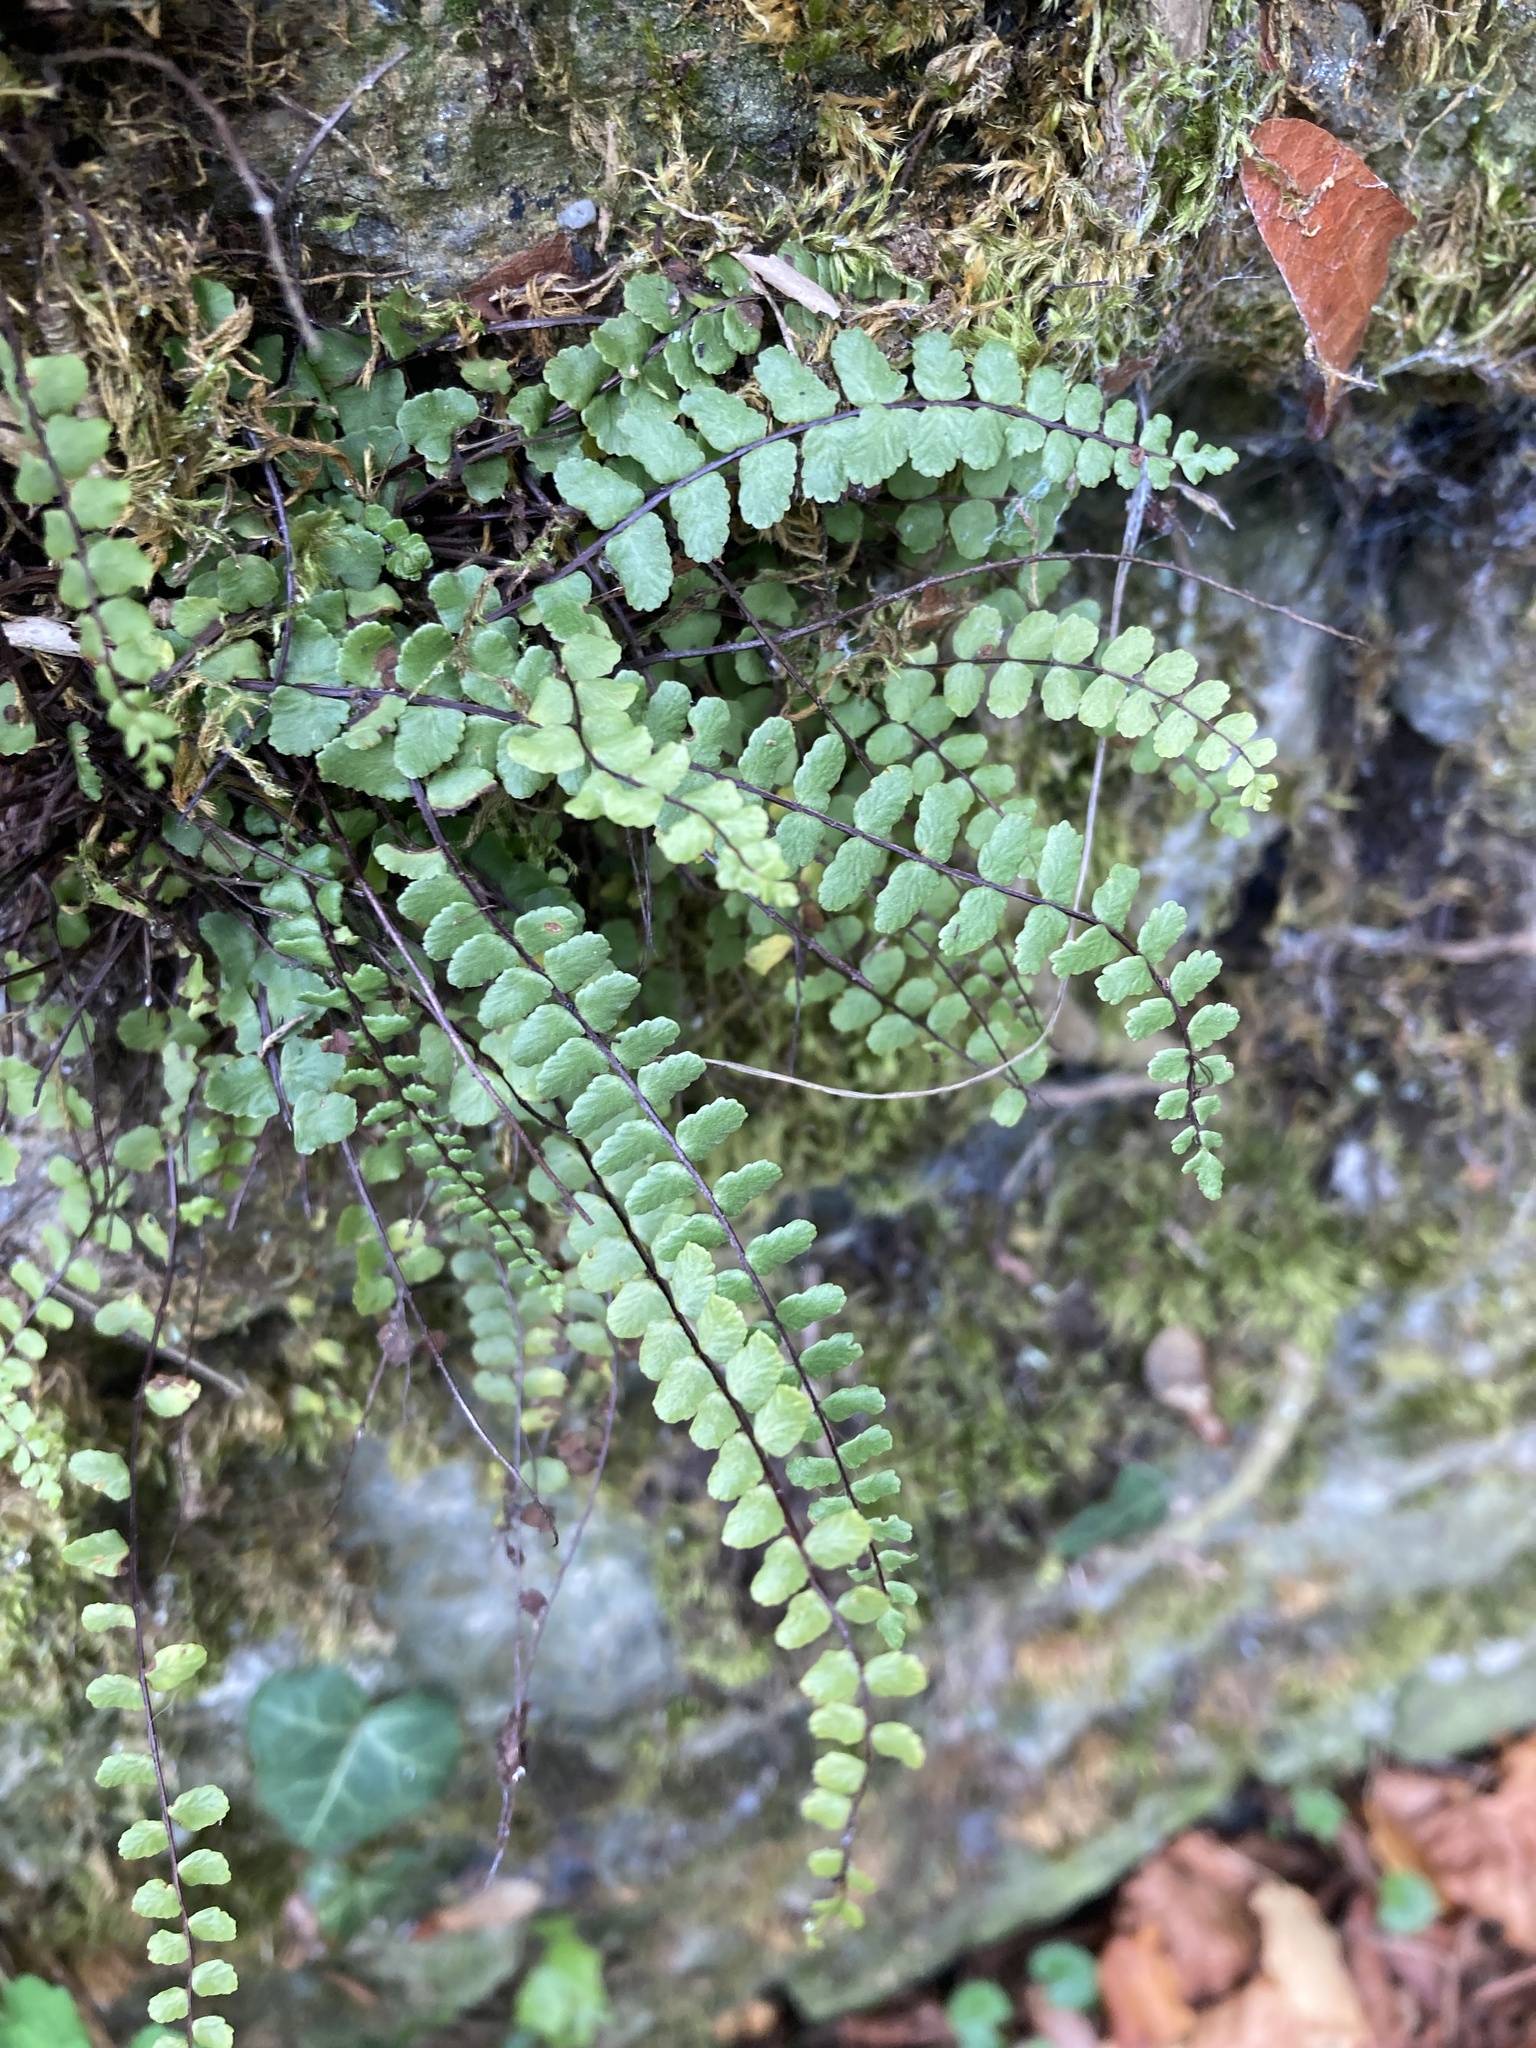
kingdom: Plantae
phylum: Tracheophyta
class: Polypodiopsida
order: Polypodiales
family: Aspleniaceae
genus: Asplenium
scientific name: Asplenium trichomanes
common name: Maidenhair spleenwort
